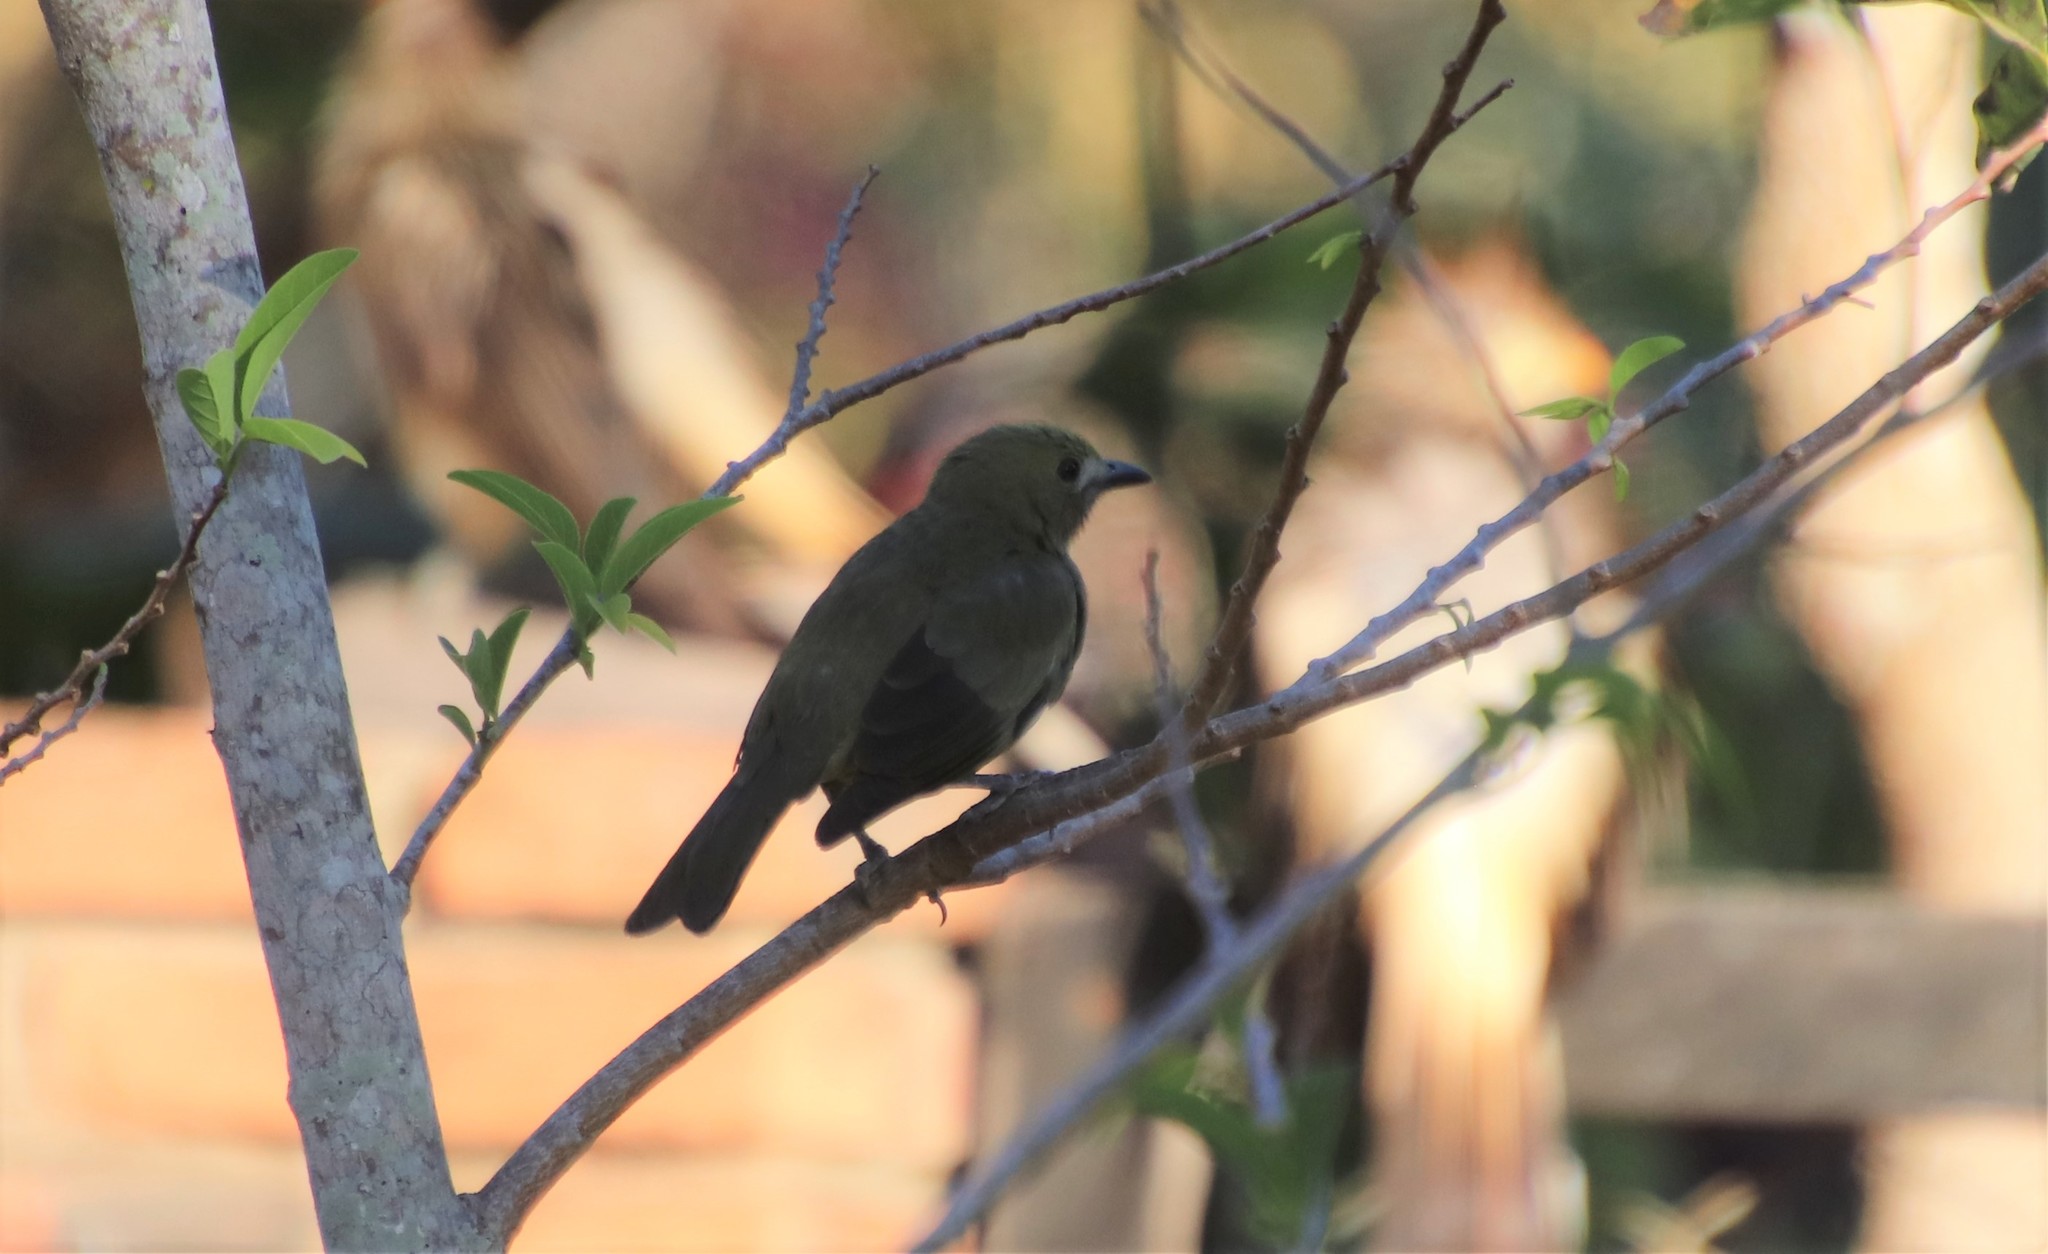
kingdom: Animalia
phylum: Chordata
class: Aves
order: Passeriformes
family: Thraupidae
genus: Thraupis
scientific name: Thraupis palmarum
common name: Palm tanager
